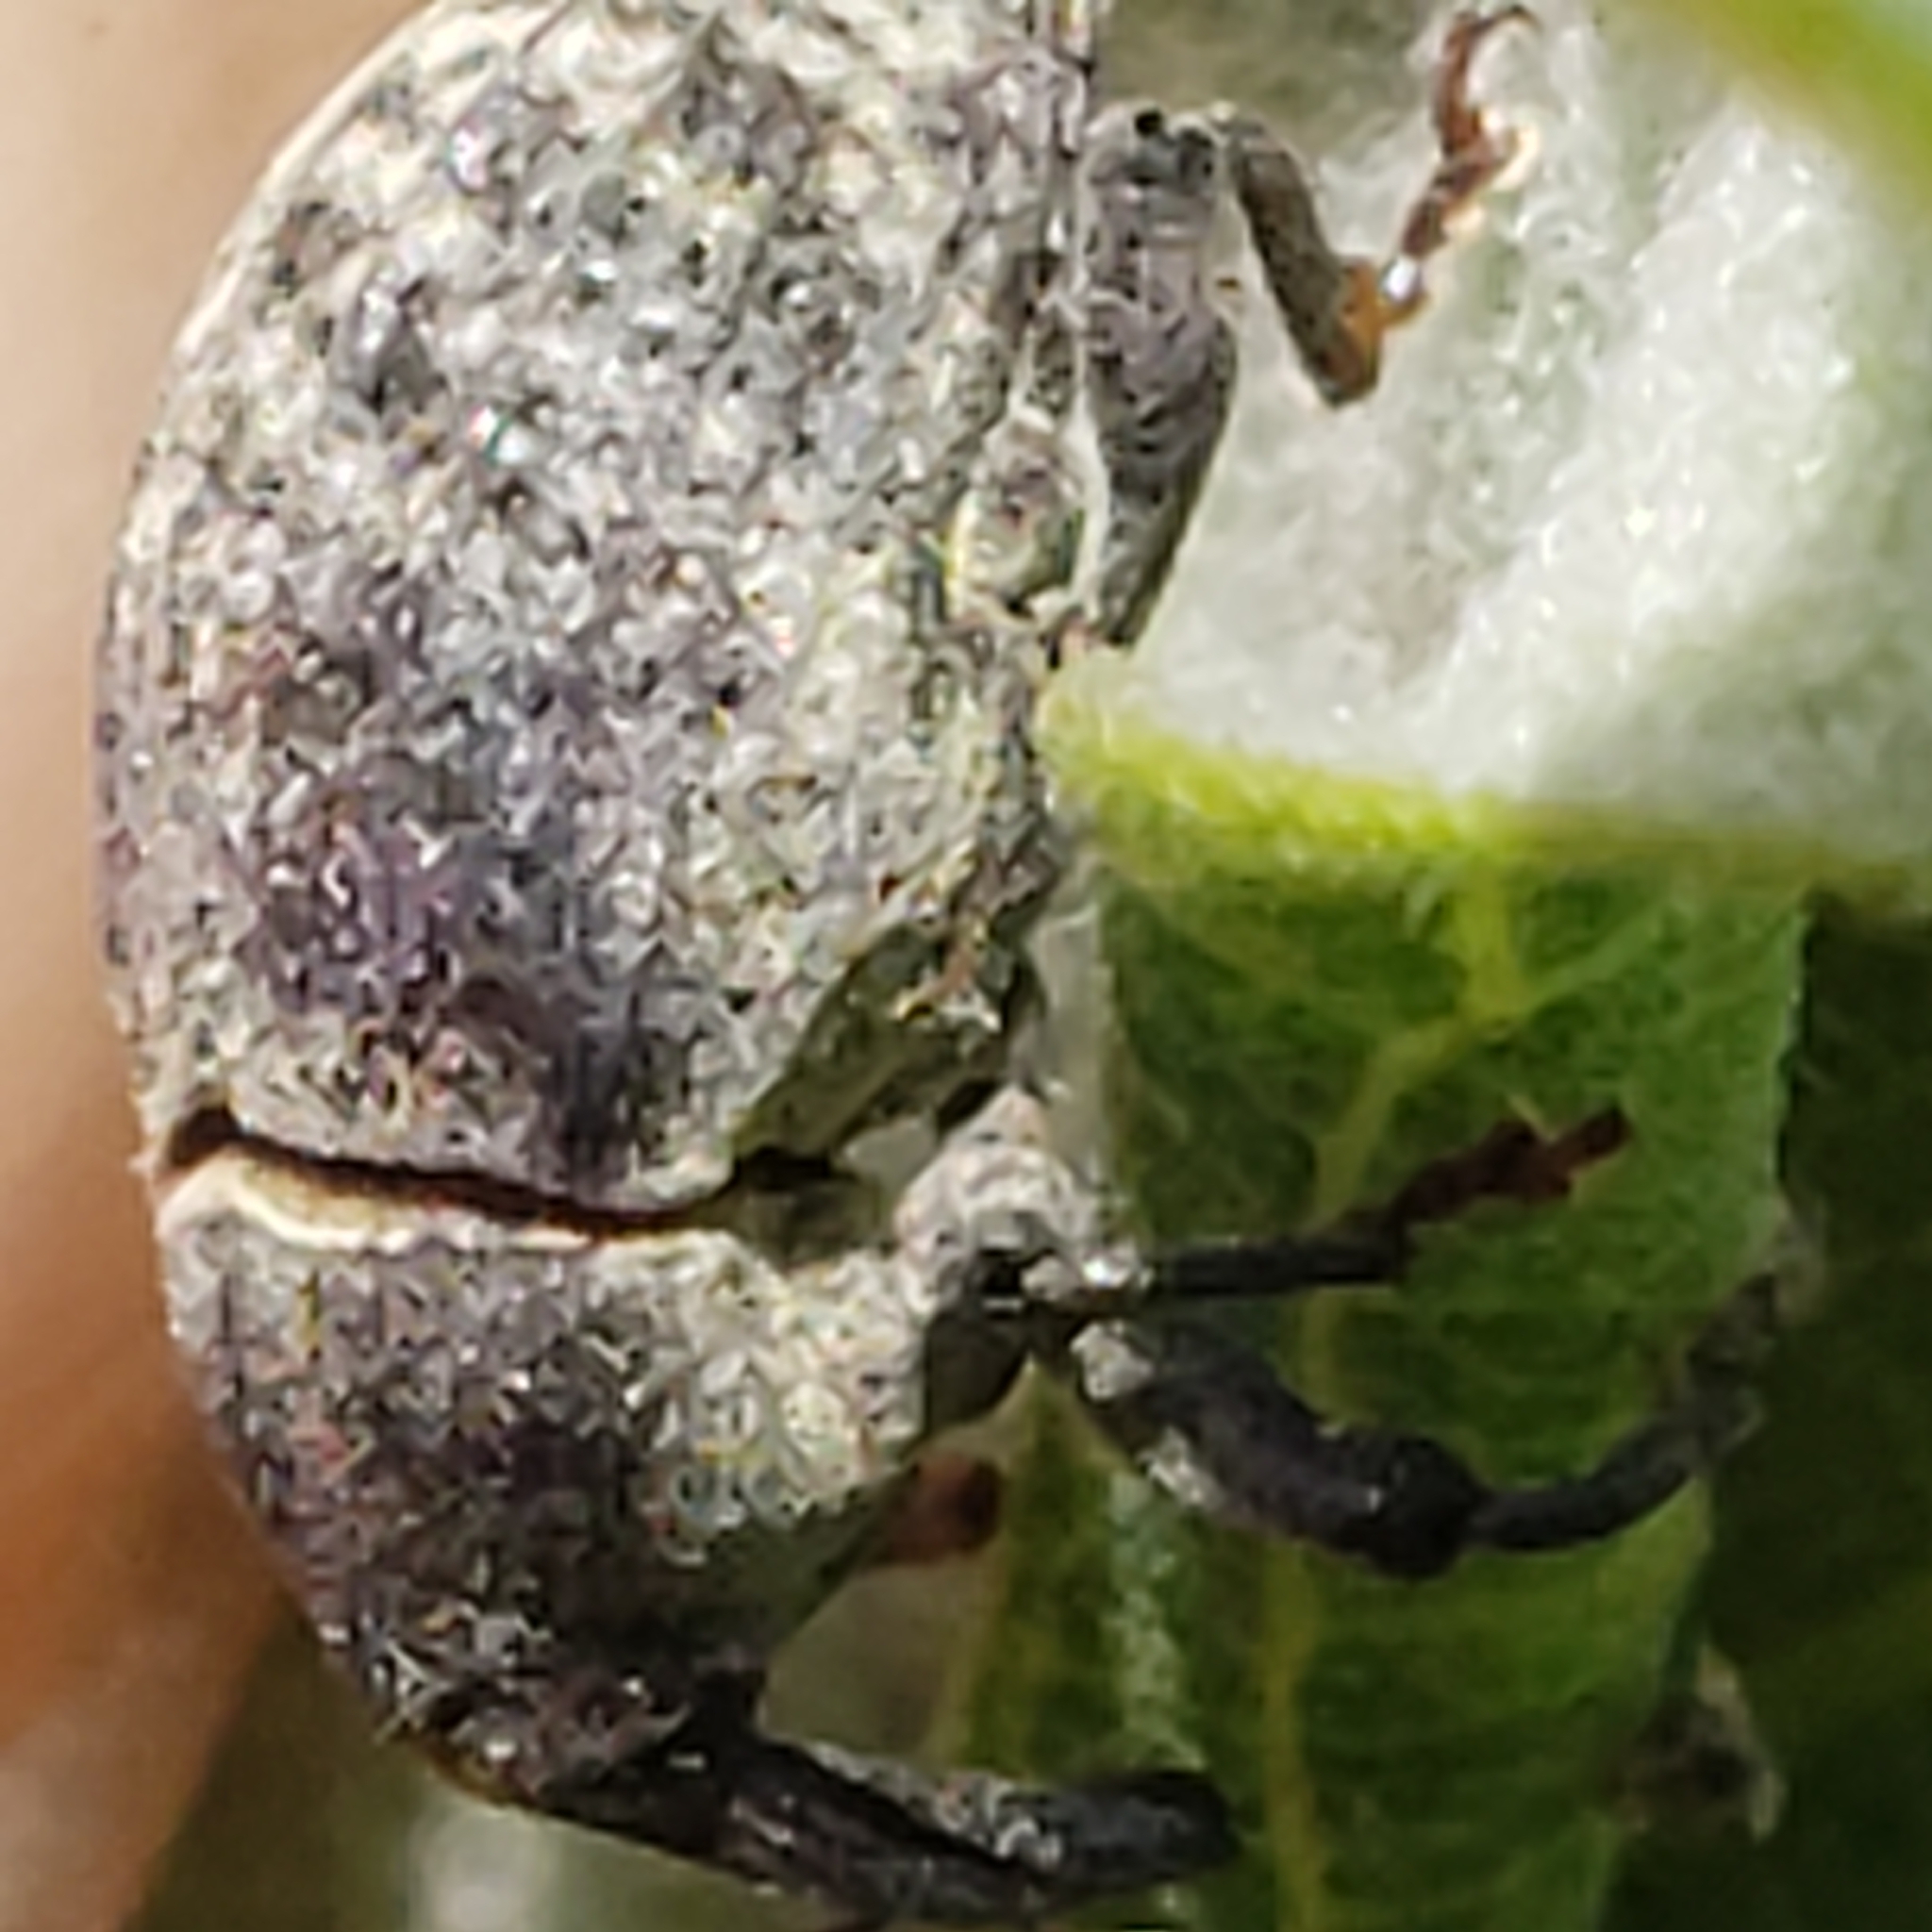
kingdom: Animalia
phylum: Arthropoda
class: Insecta
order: Coleoptera
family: Curculionidae
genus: Rhyssomatus
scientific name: Rhyssomatus lineaticollis
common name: Milkweed stem weevil
